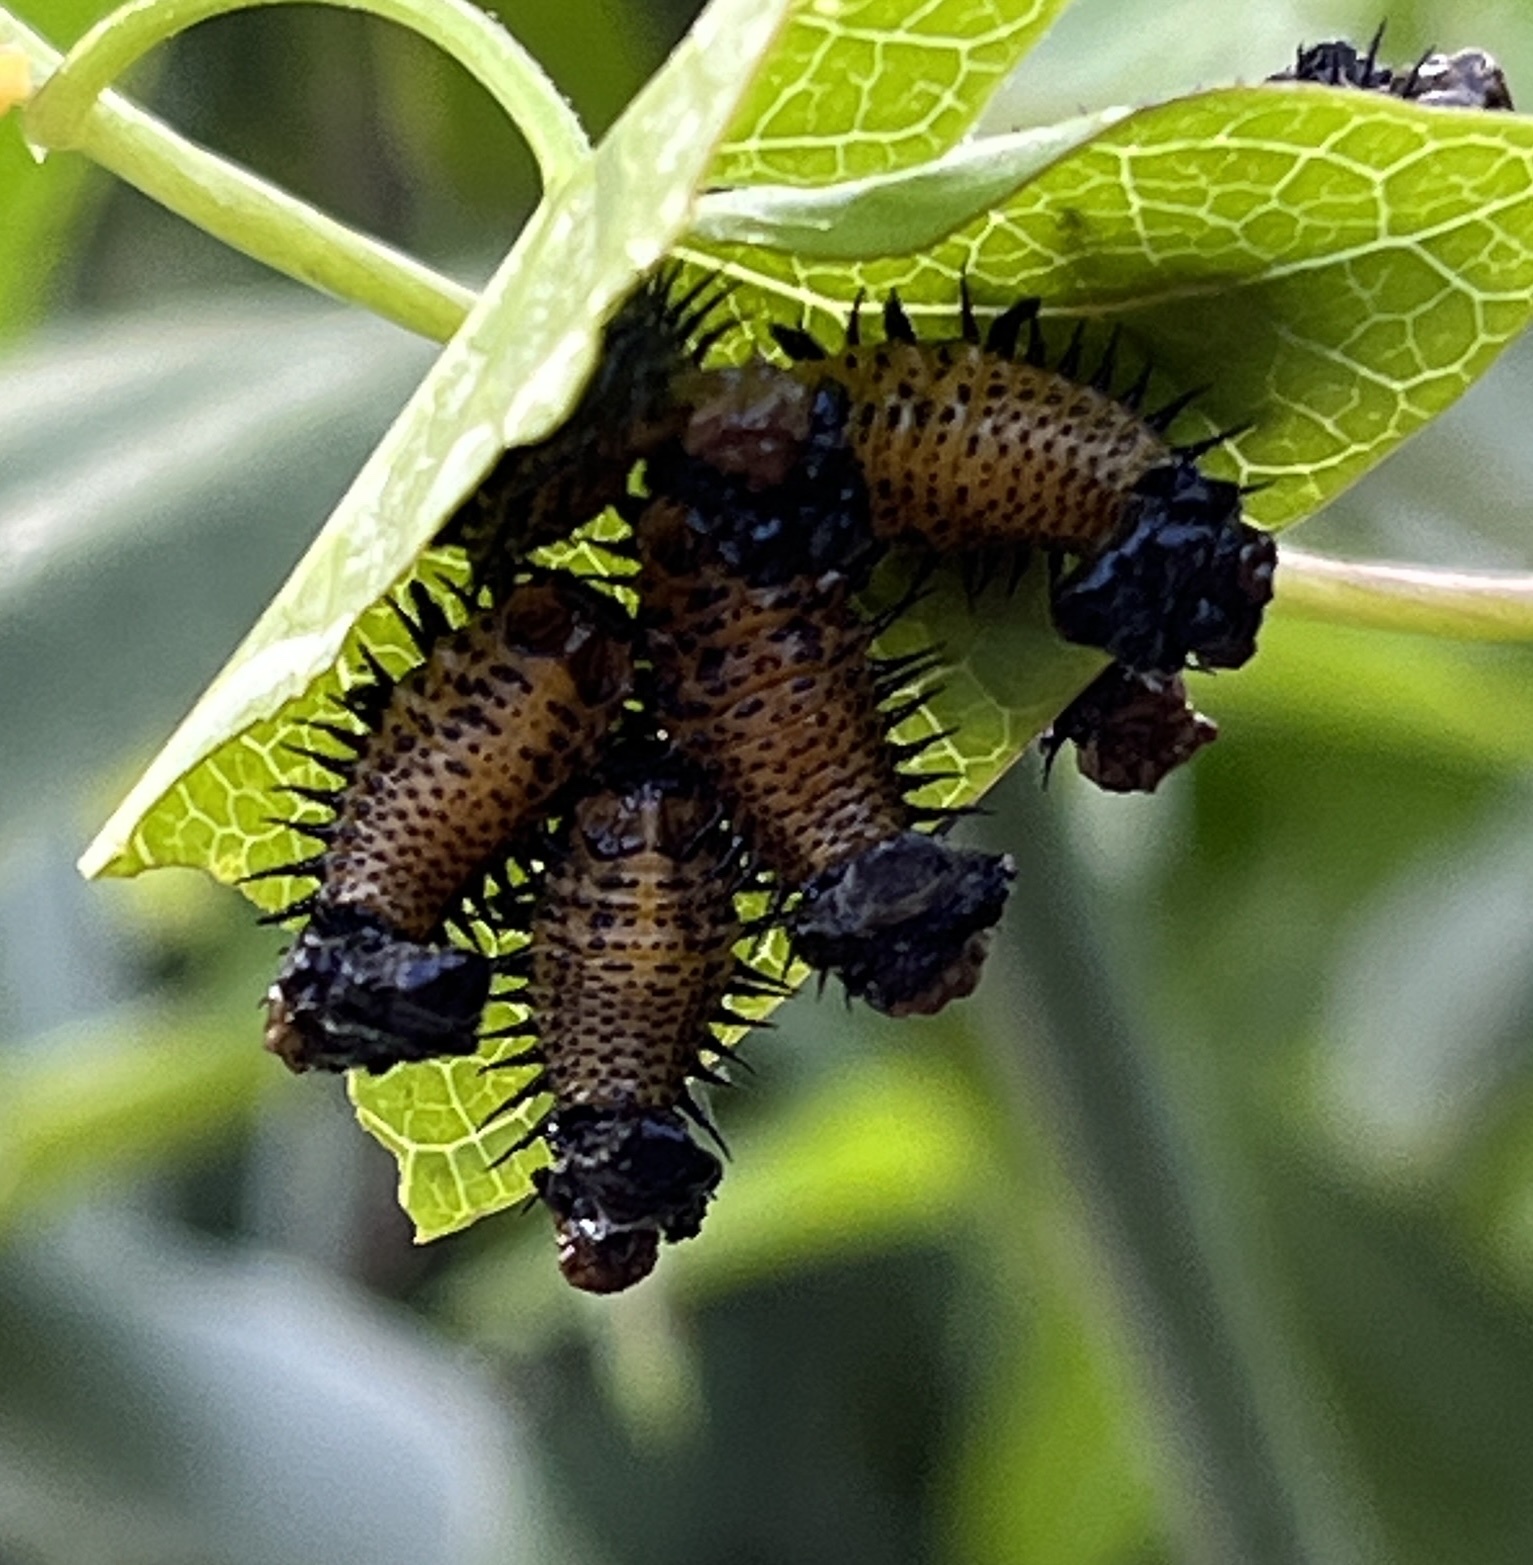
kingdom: Animalia
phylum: Arthropoda
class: Insecta
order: Coleoptera
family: Chrysomelidae
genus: Chelymorpha
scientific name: Chelymorpha cassidea
